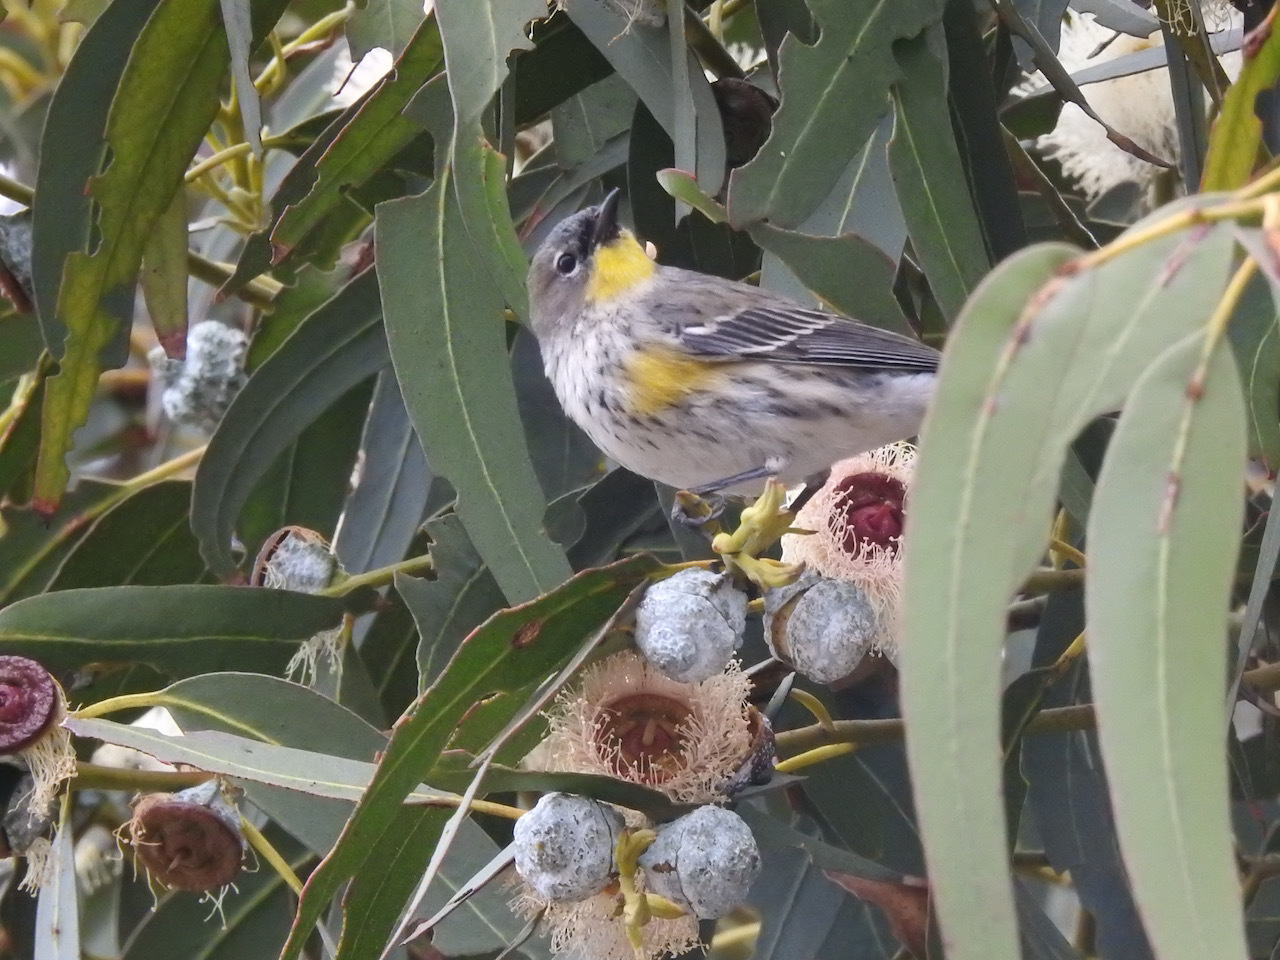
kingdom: Animalia
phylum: Chordata
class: Aves
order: Passeriformes
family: Parulidae
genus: Setophaga
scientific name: Setophaga auduboni
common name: Audubon's warbler
